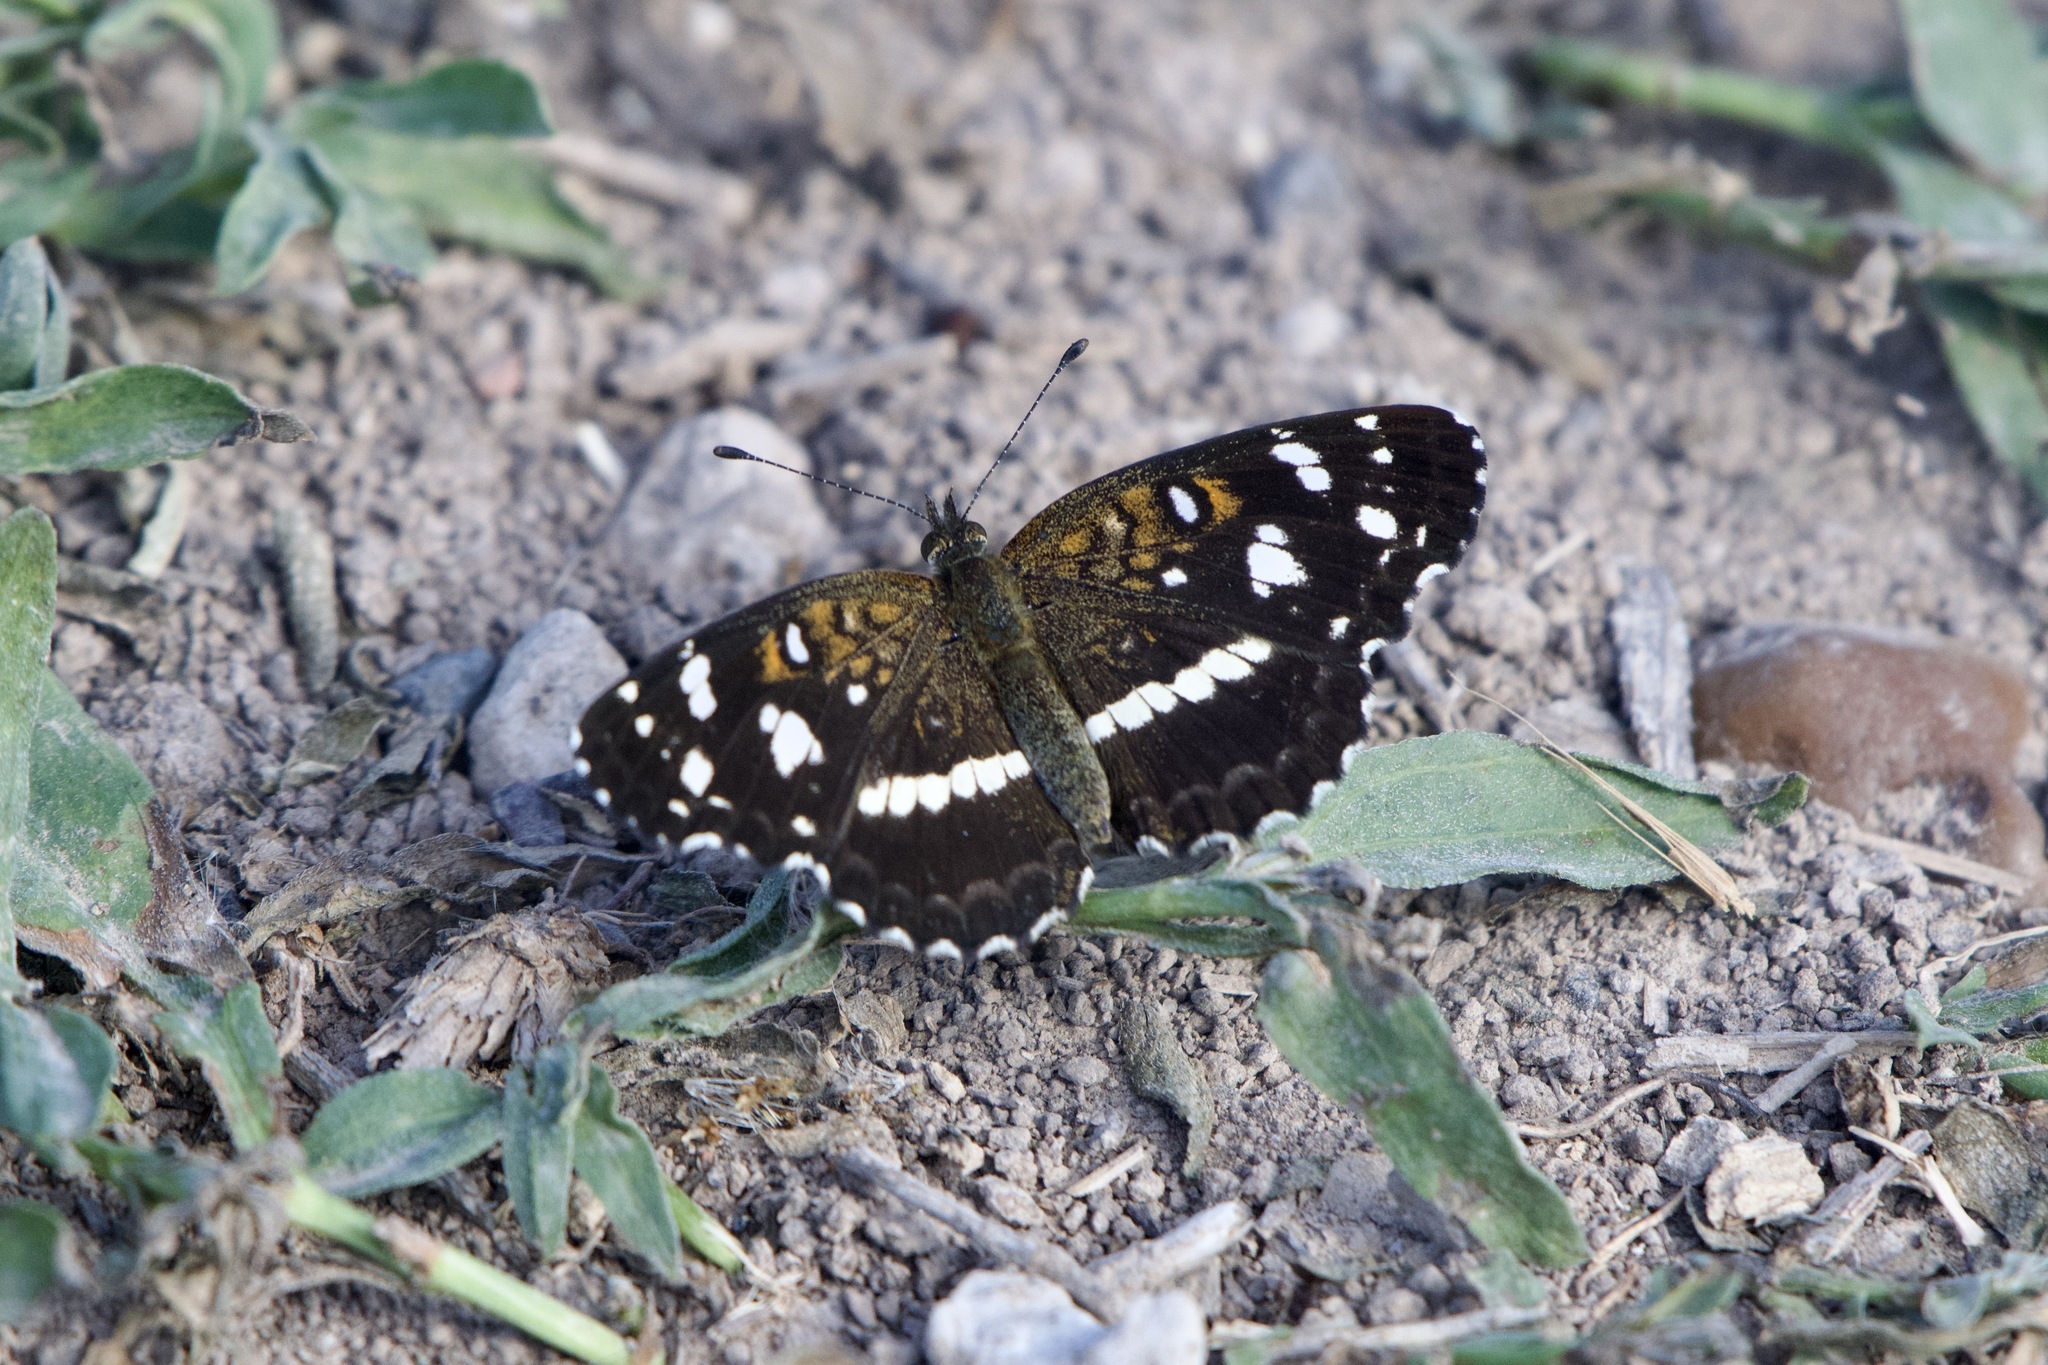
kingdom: Animalia
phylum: Arthropoda
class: Insecta
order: Lepidoptera
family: Nymphalidae
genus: Ortilia
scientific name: Ortilia ithra
